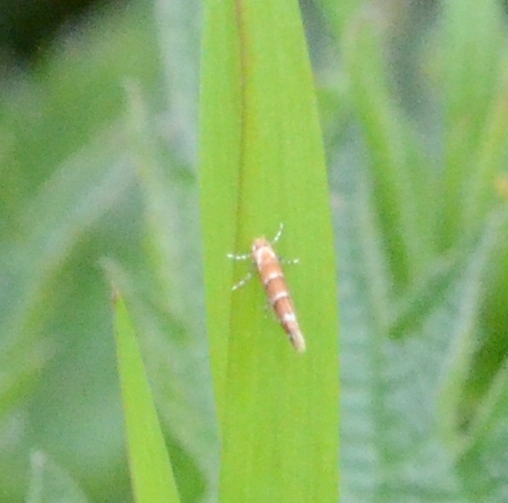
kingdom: Animalia
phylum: Arthropoda
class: Insecta
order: Lepidoptera
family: Gracillariidae
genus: Cameraria
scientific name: Cameraria ohridella
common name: Horse-chestnut leaf-miner
